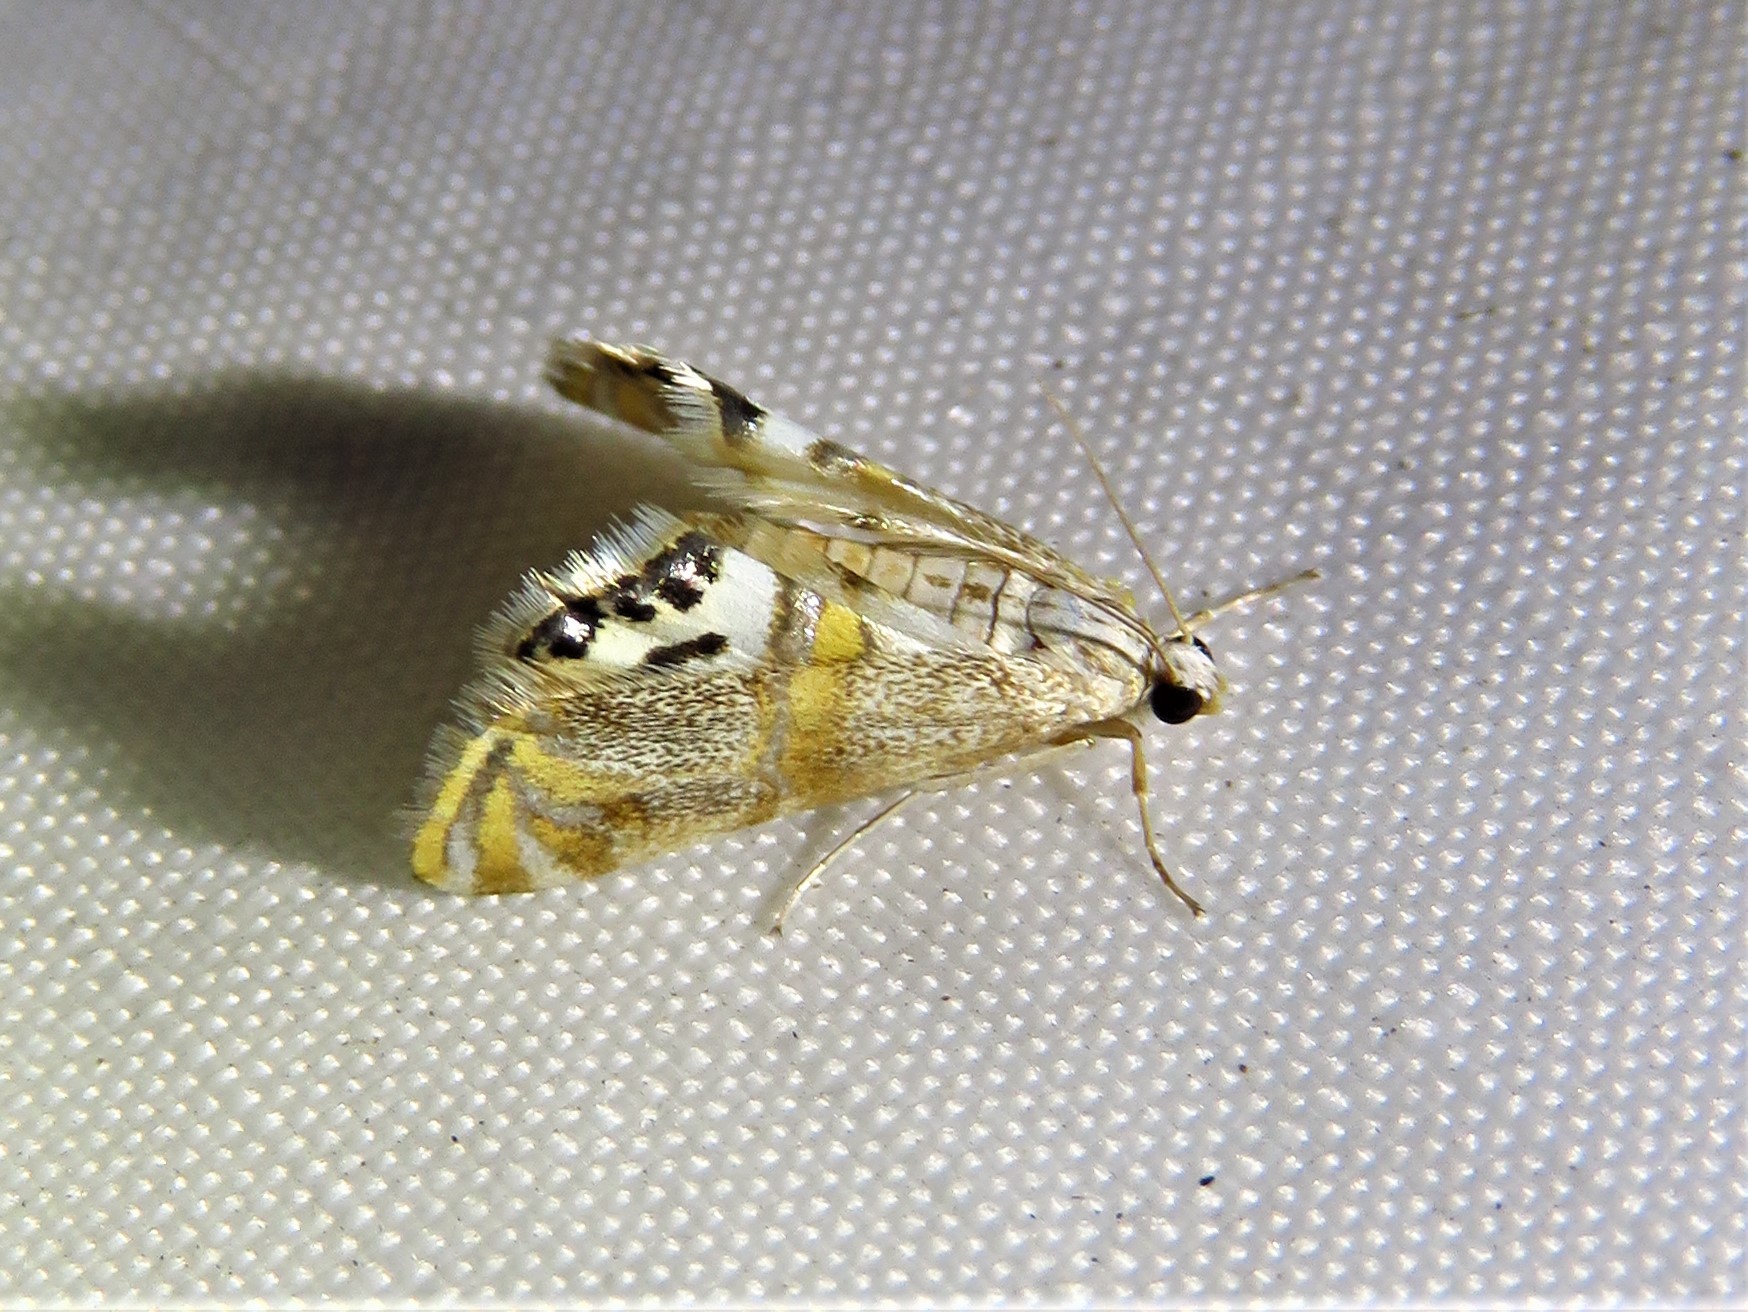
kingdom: Animalia
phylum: Arthropoda
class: Insecta
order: Lepidoptera
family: Crambidae
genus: Petrophila
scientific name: Petrophila bifascialis
